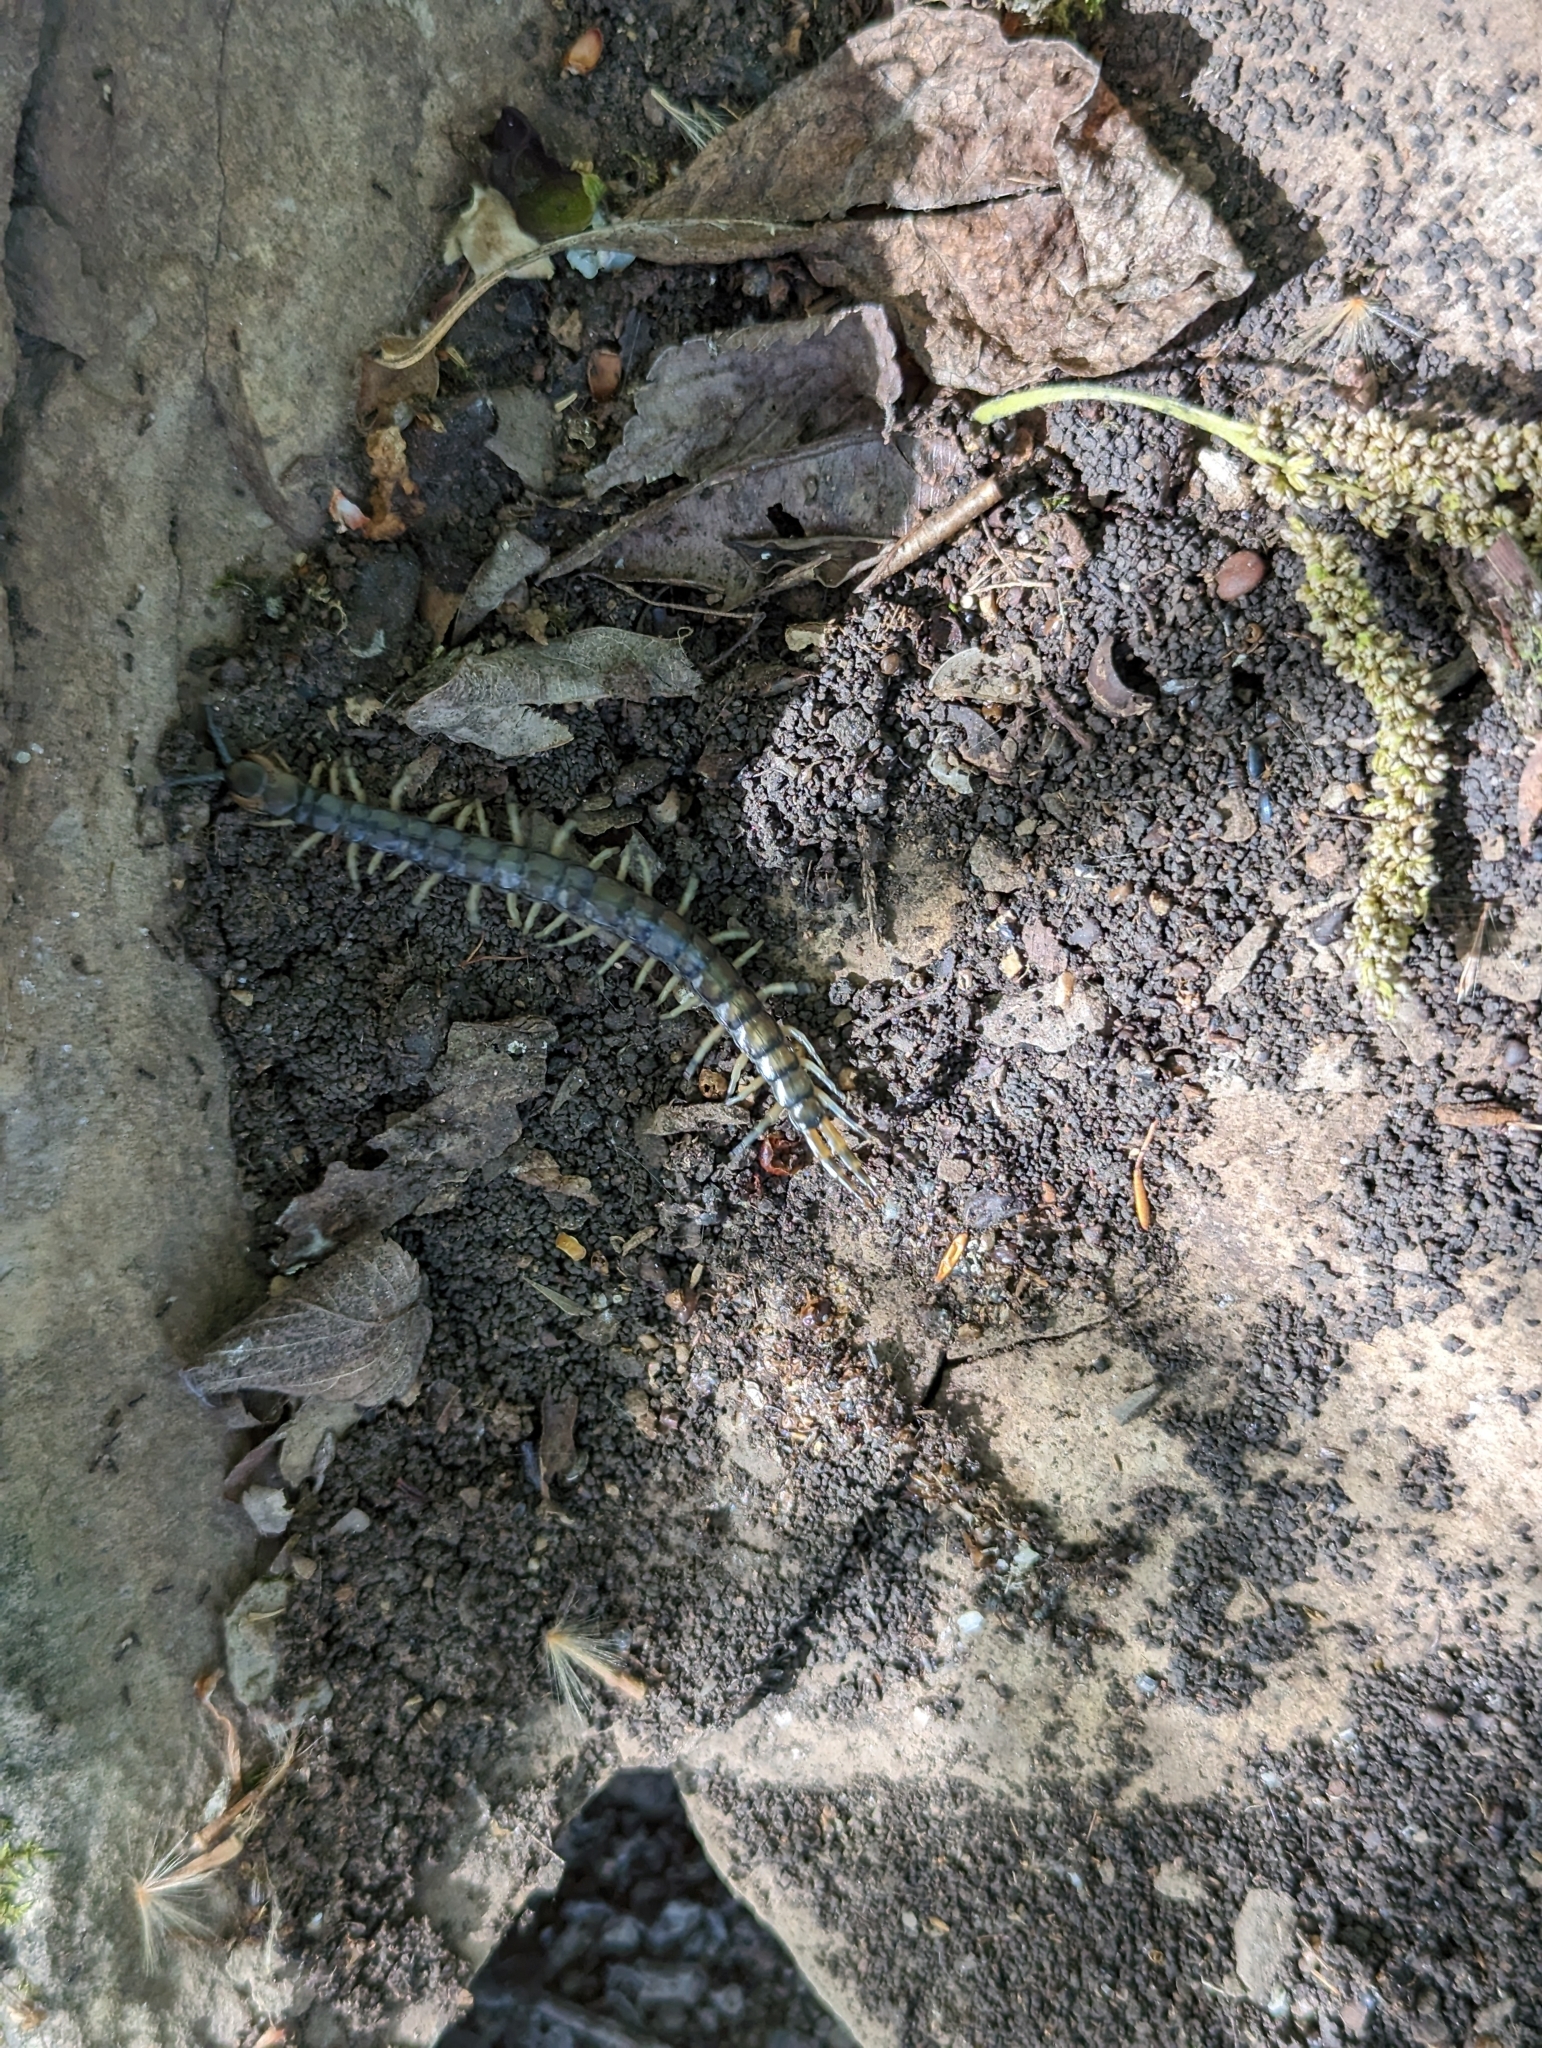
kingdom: Animalia
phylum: Arthropoda
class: Chilopoda
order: Scolopendromorpha
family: Scolopendridae
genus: Hemiscolopendra
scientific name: Hemiscolopendra marginata
